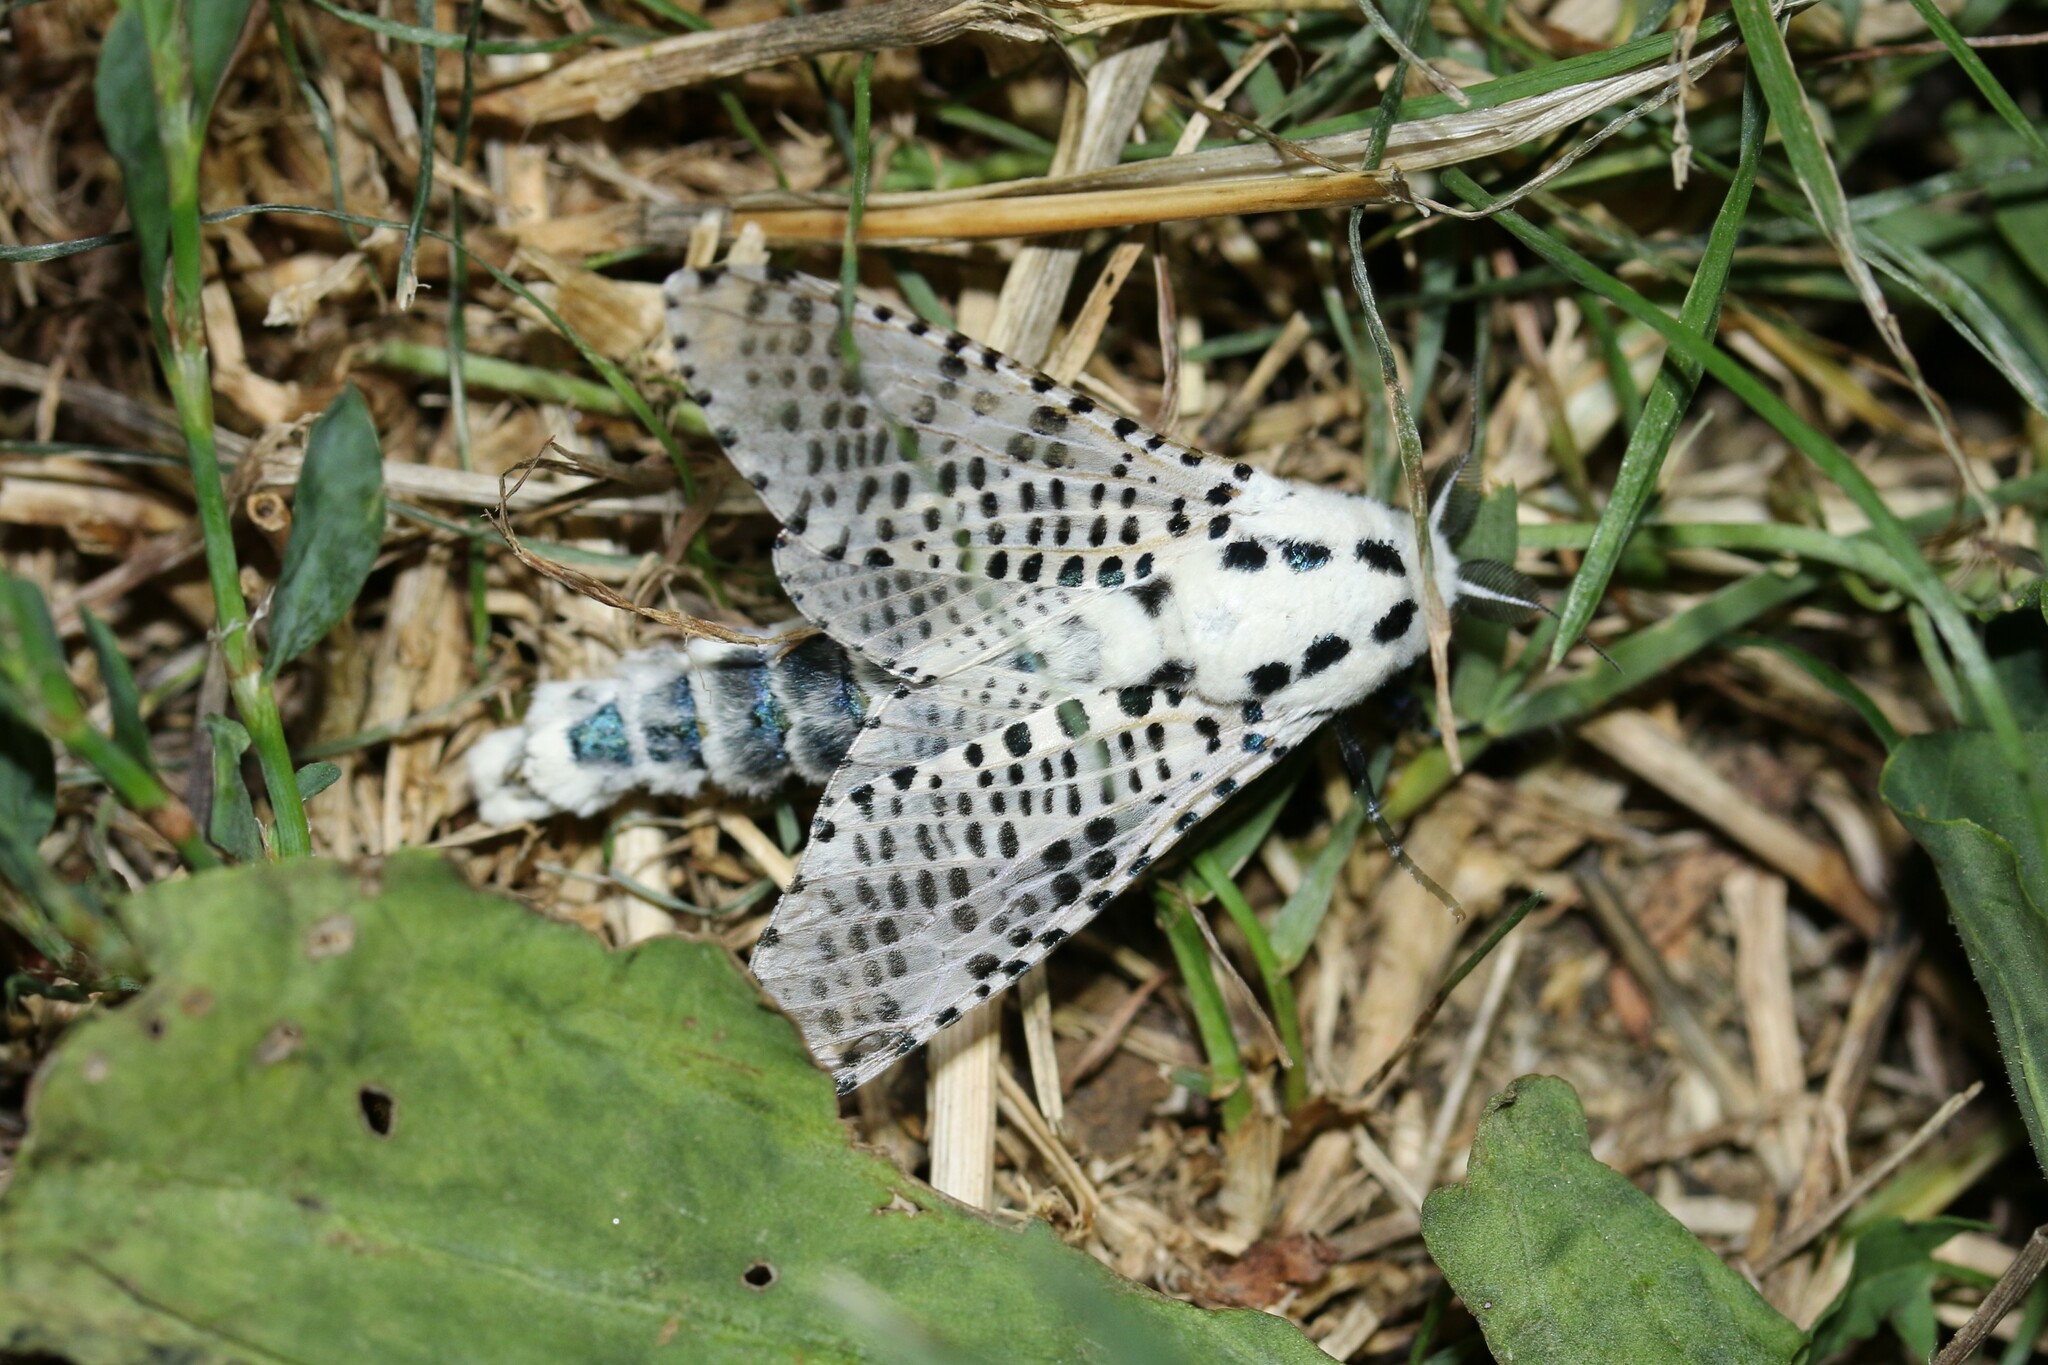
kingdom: Animalia
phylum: Arthropoda
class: Insecta
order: Lepidoptera
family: Cossidae
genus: Zeuzera
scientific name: Zeuzera pyrina
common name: Leopard moth
